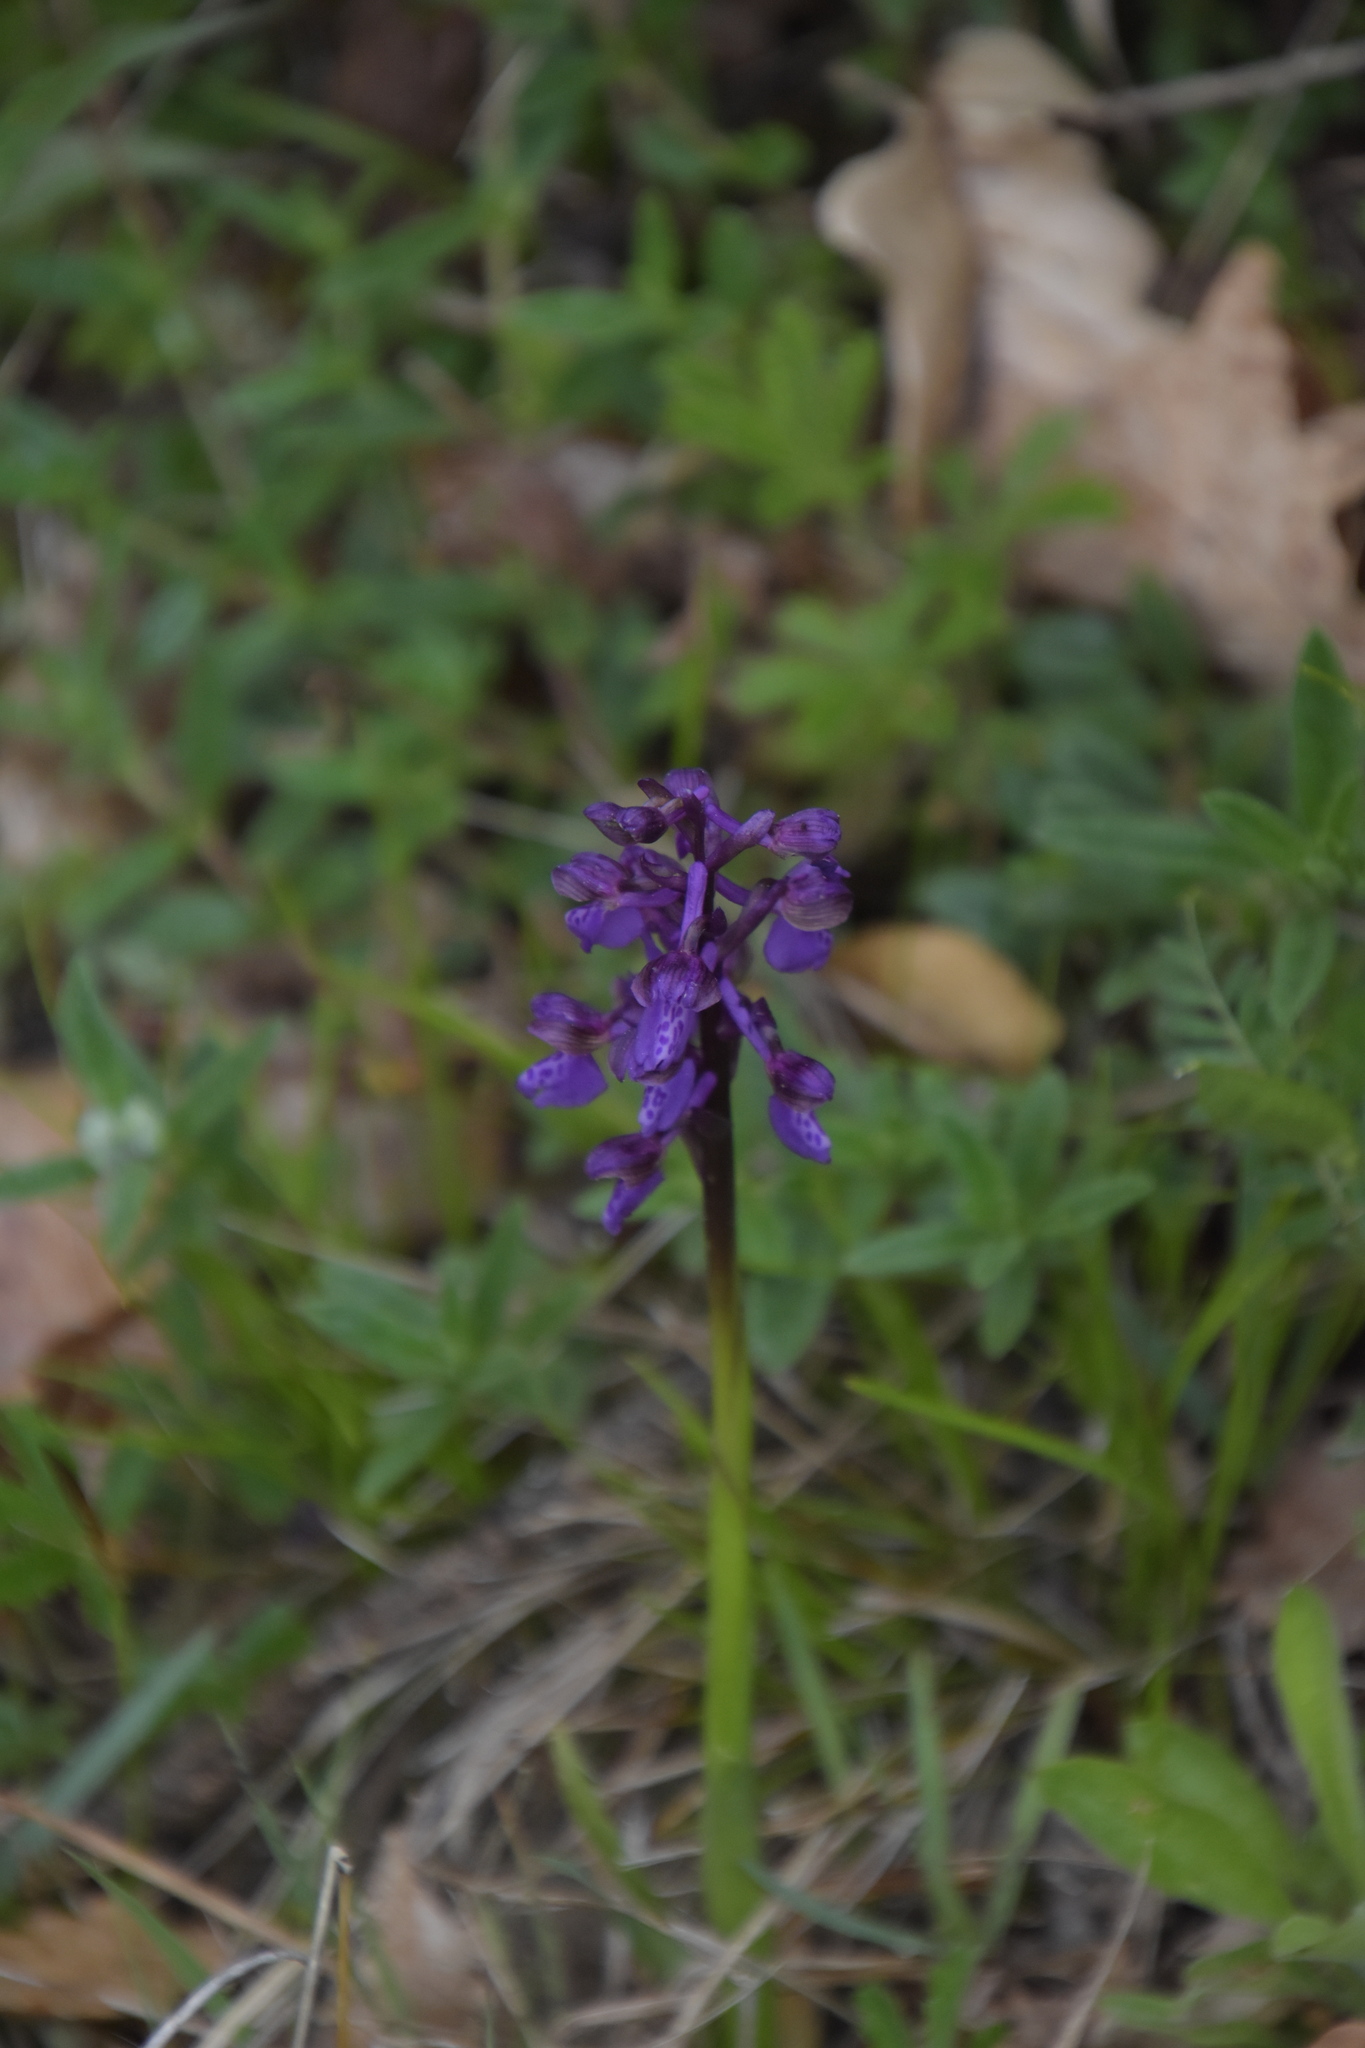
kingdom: Plantae
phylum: Tracheophyta
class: Liliopsida
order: Asparagales
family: Orchidaceae
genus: Anacamptis
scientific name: Anacamptis morio
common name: Green-winged orchid
